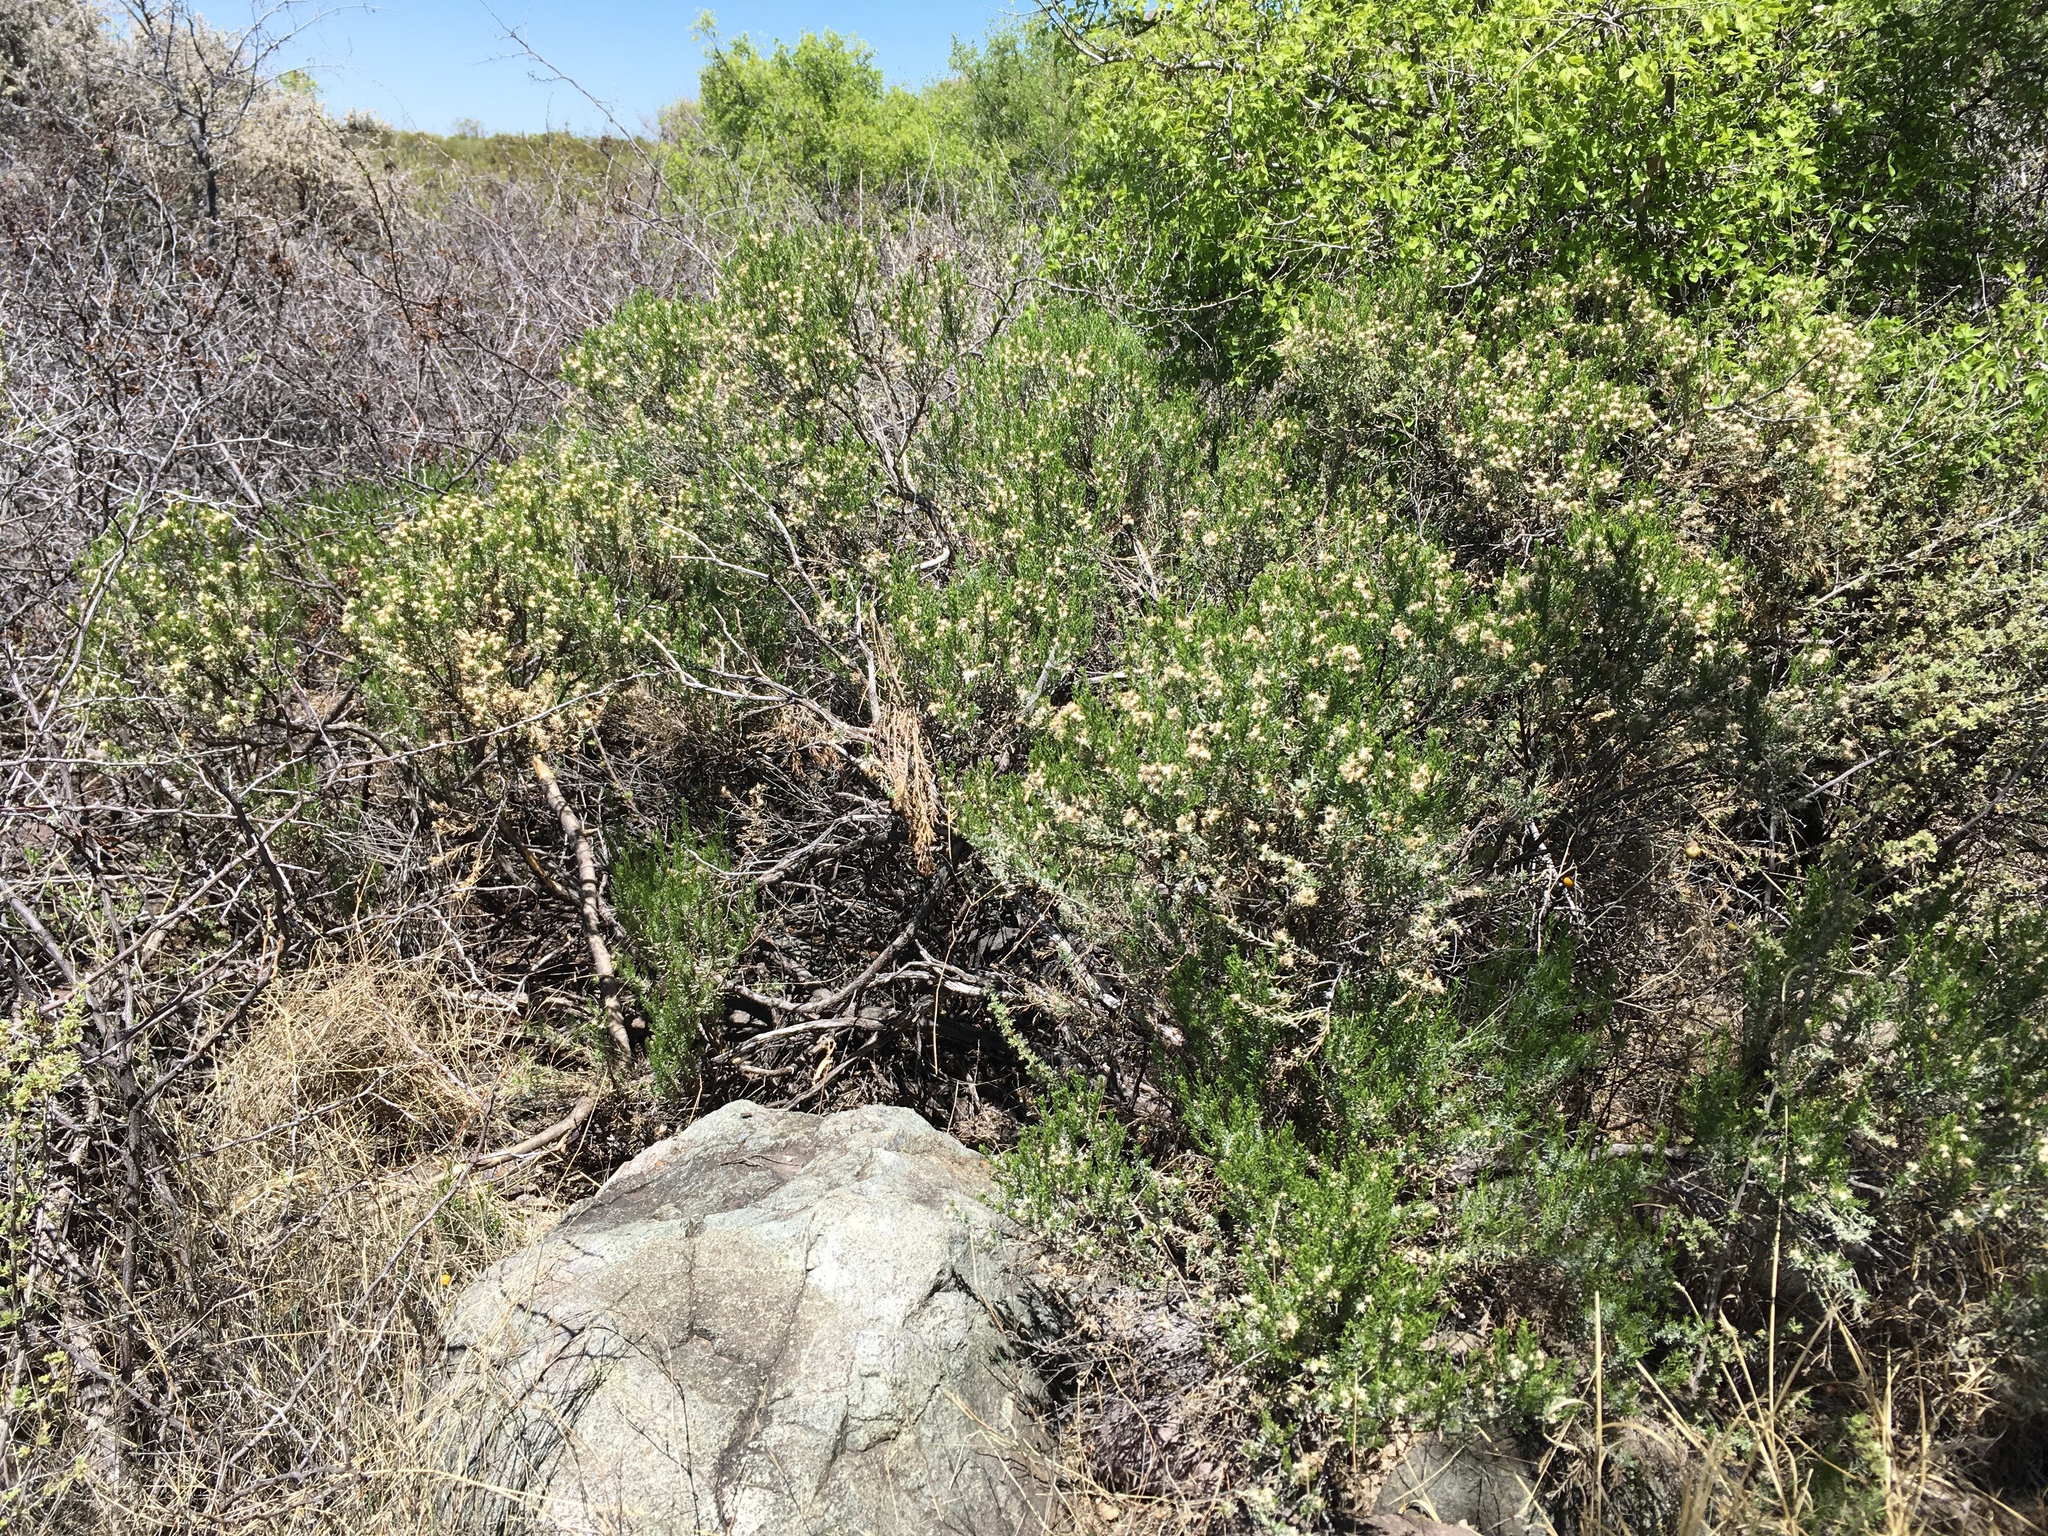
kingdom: Plantae
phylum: Tracheophyta
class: Magnoliopsida
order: Asterales
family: Asteraceae
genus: Ericameria
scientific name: Ericameria laricifolia
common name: Turpentine-bush
